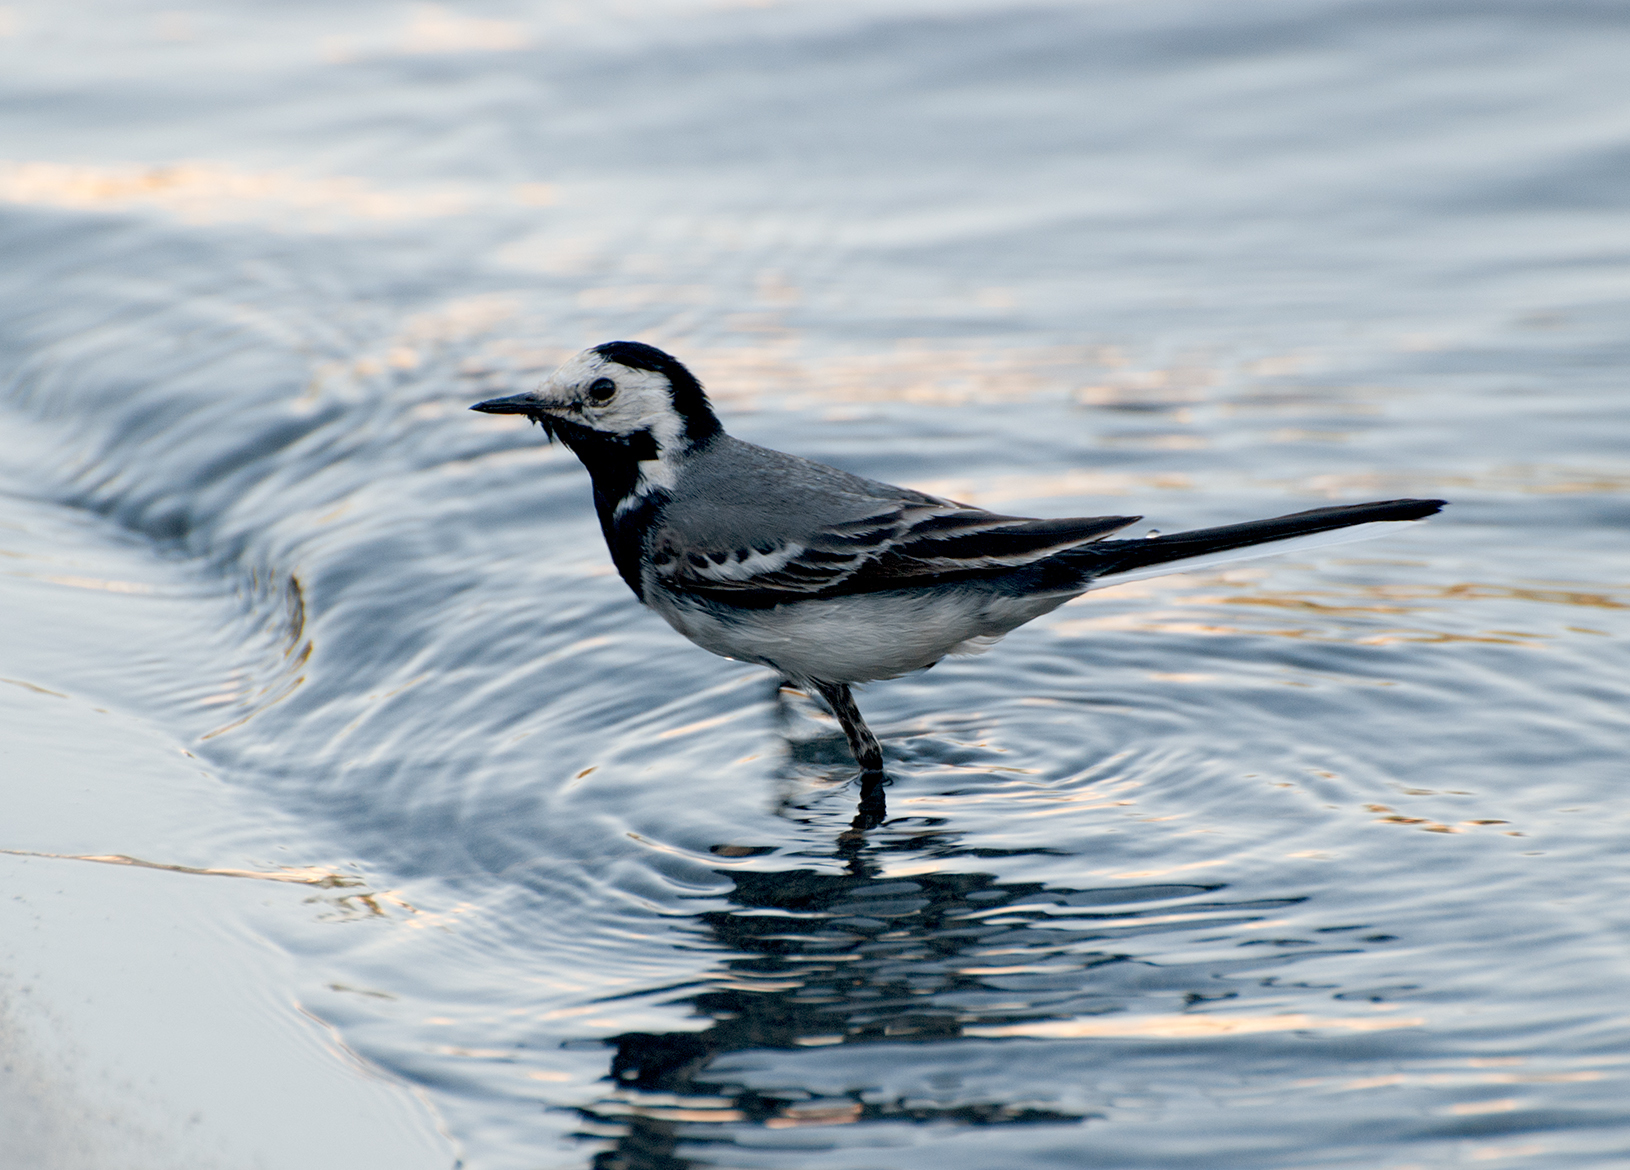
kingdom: Animalia
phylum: Chordata
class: Aves
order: Passeriformes
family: Motacillidae
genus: Motacilla
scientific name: Motacilla alba
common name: White wagtail
